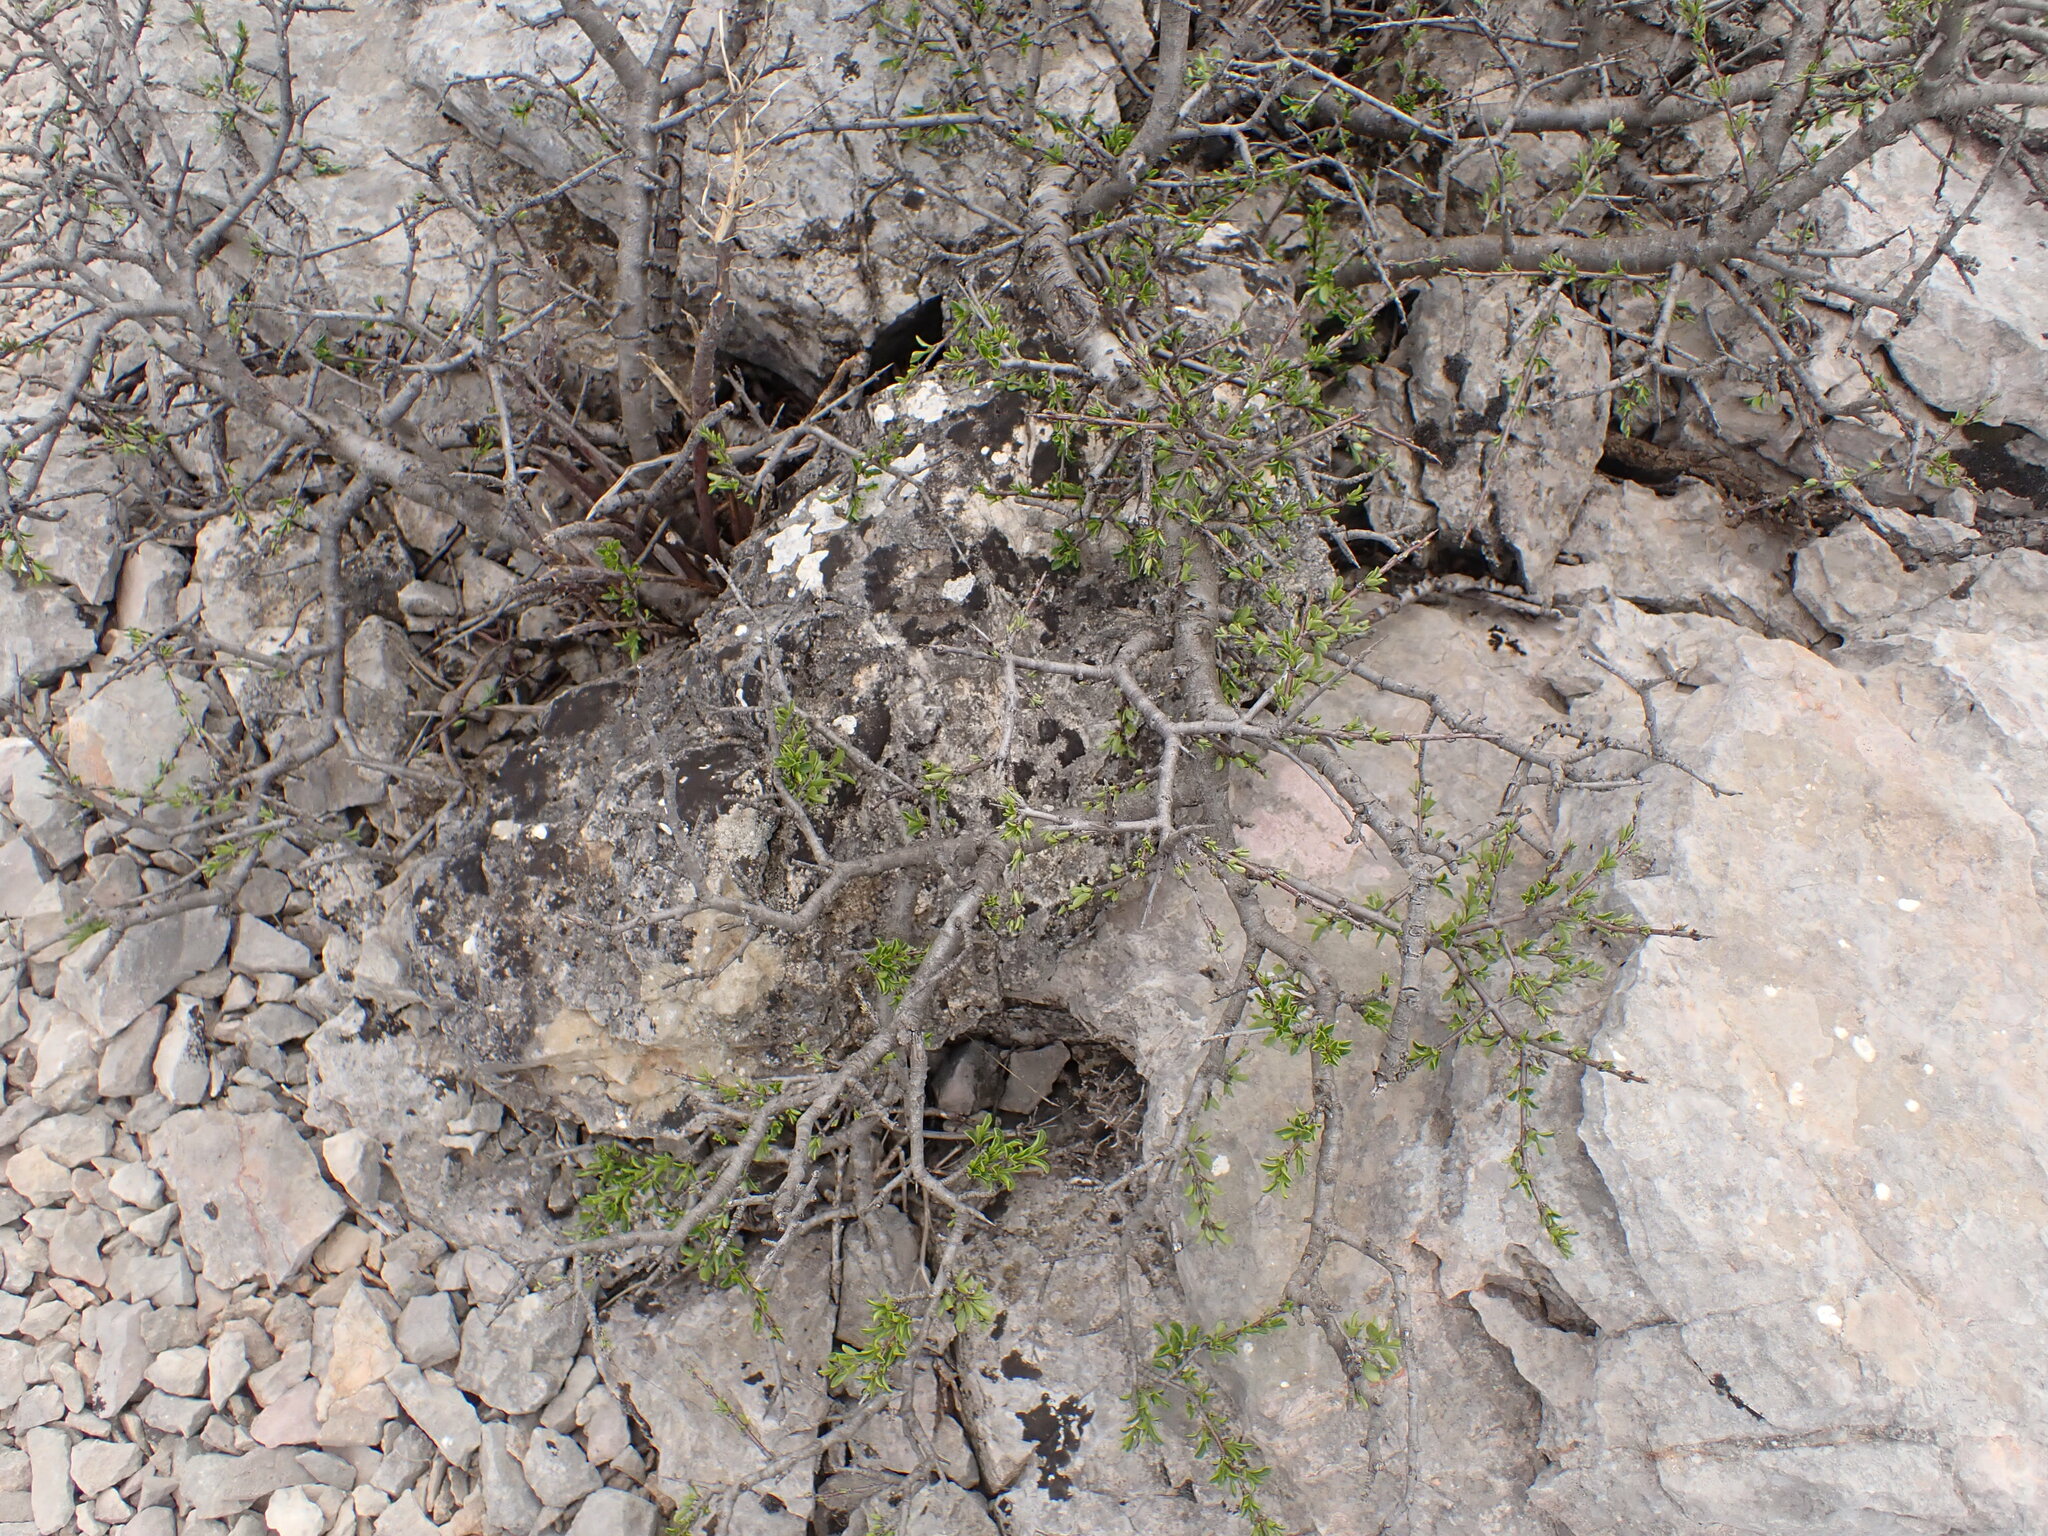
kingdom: Plantae
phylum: Tracheophyta
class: Magnoliopsida
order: Rosales
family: Rhamnaceae
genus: Rhamnus
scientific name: Rhamnus saxatilis
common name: Rock buckthorn
